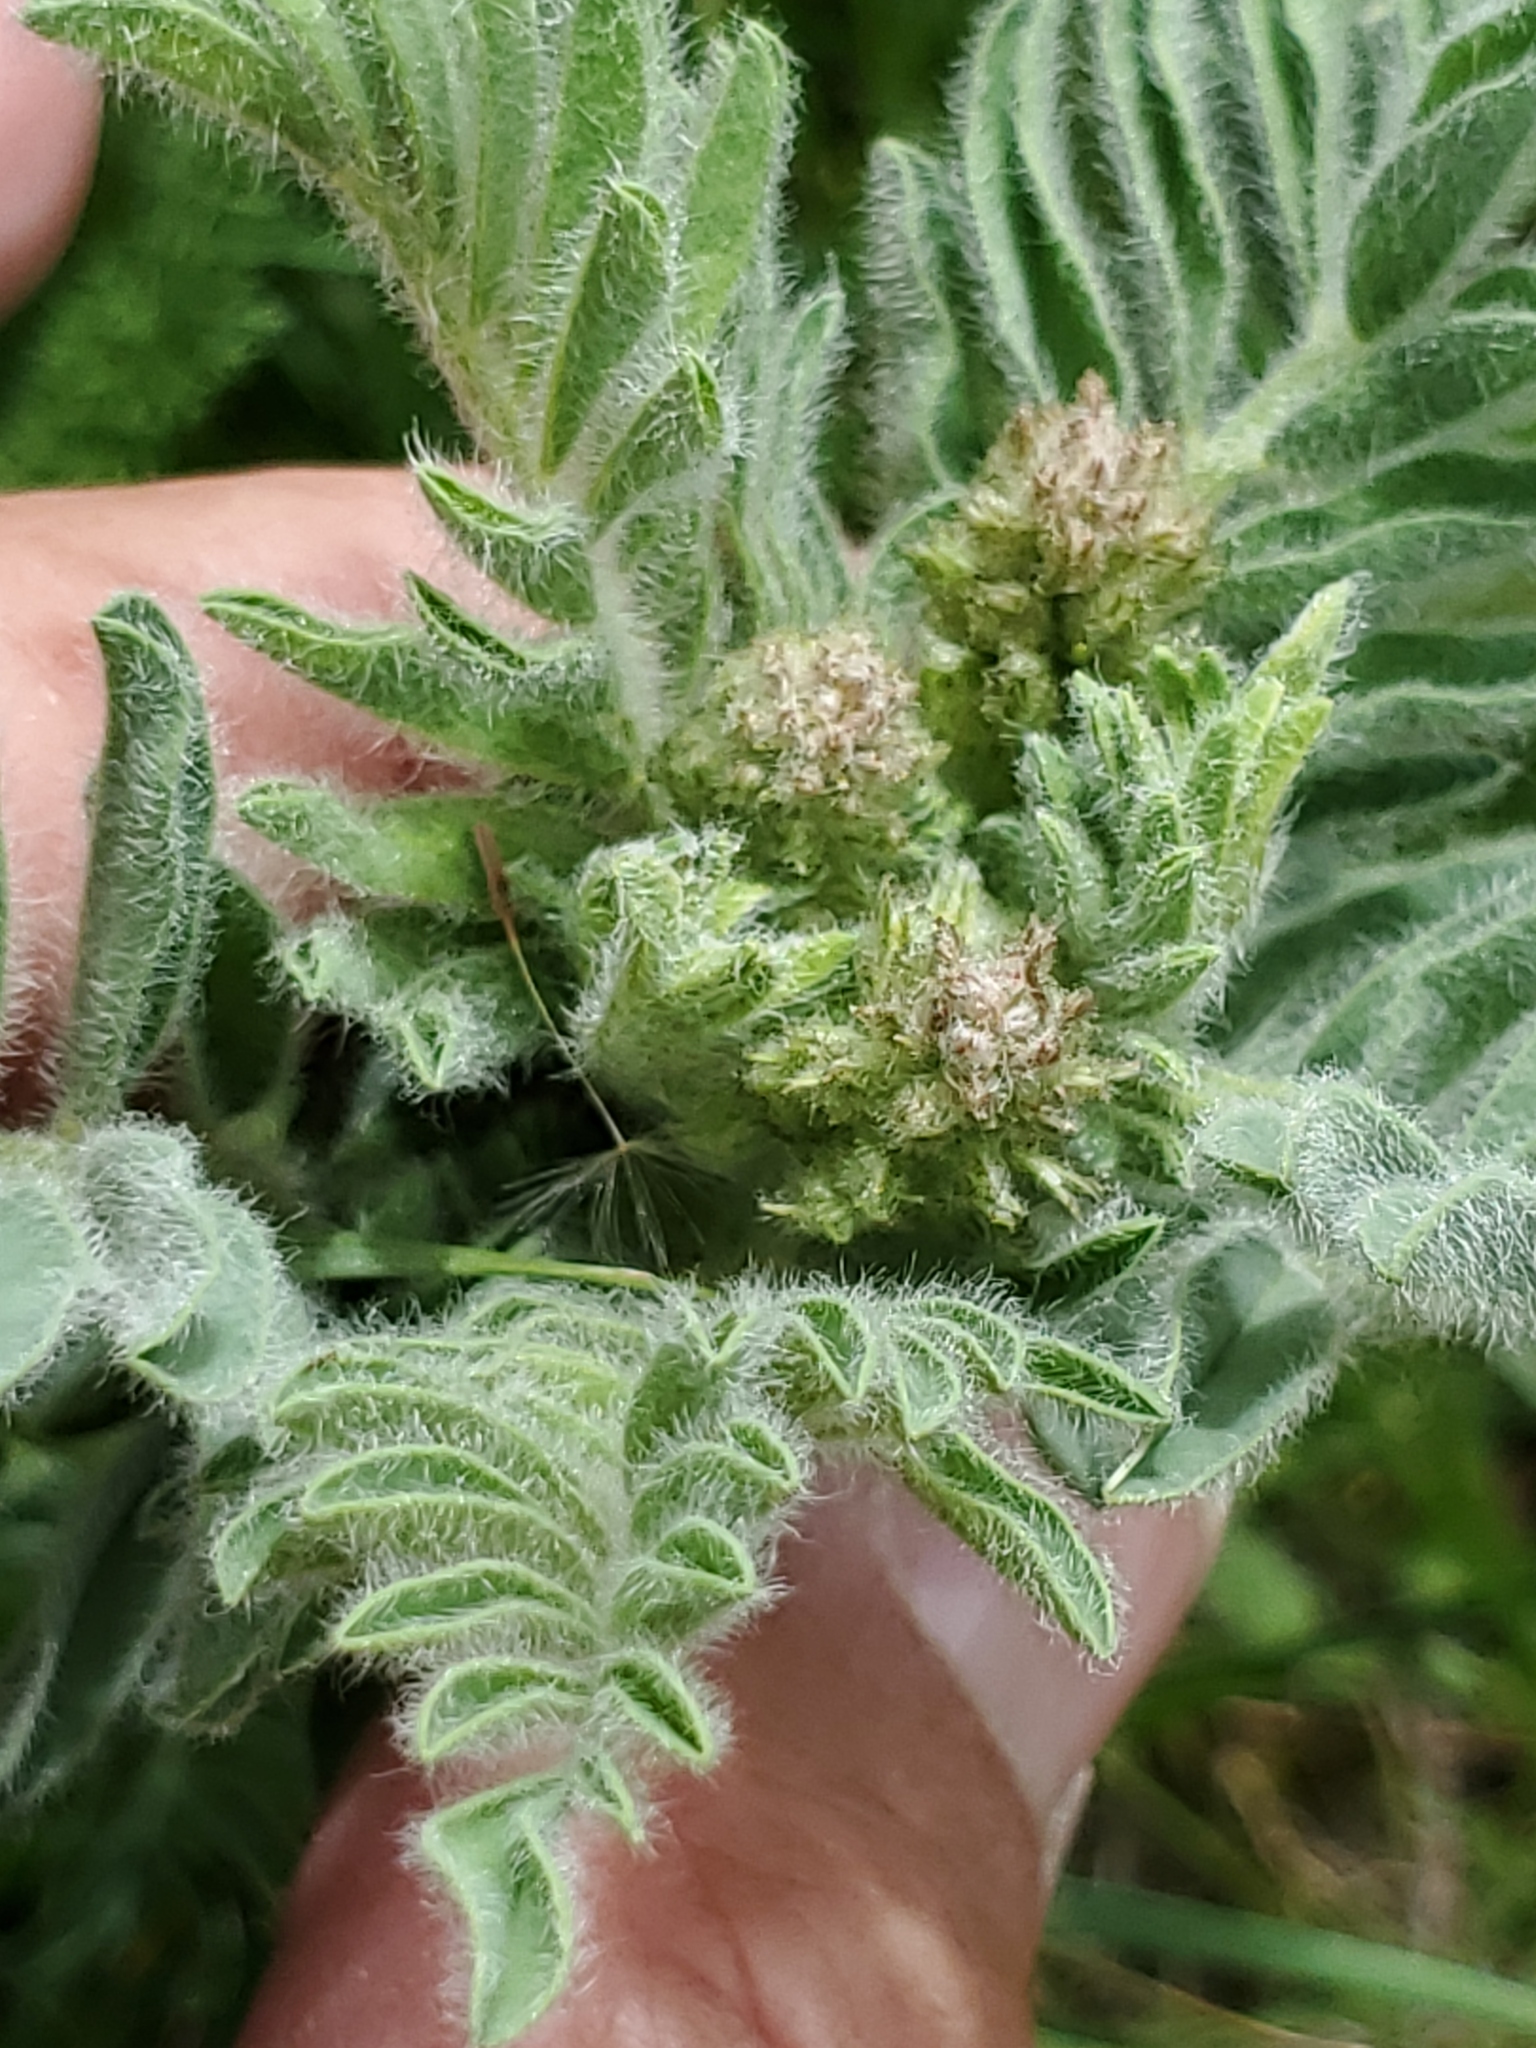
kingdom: Plantae
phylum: Tracheophyta
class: Magnoliopsida
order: Fabales
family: Fabaceae
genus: Astragalus
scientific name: Astragalus drummondii
